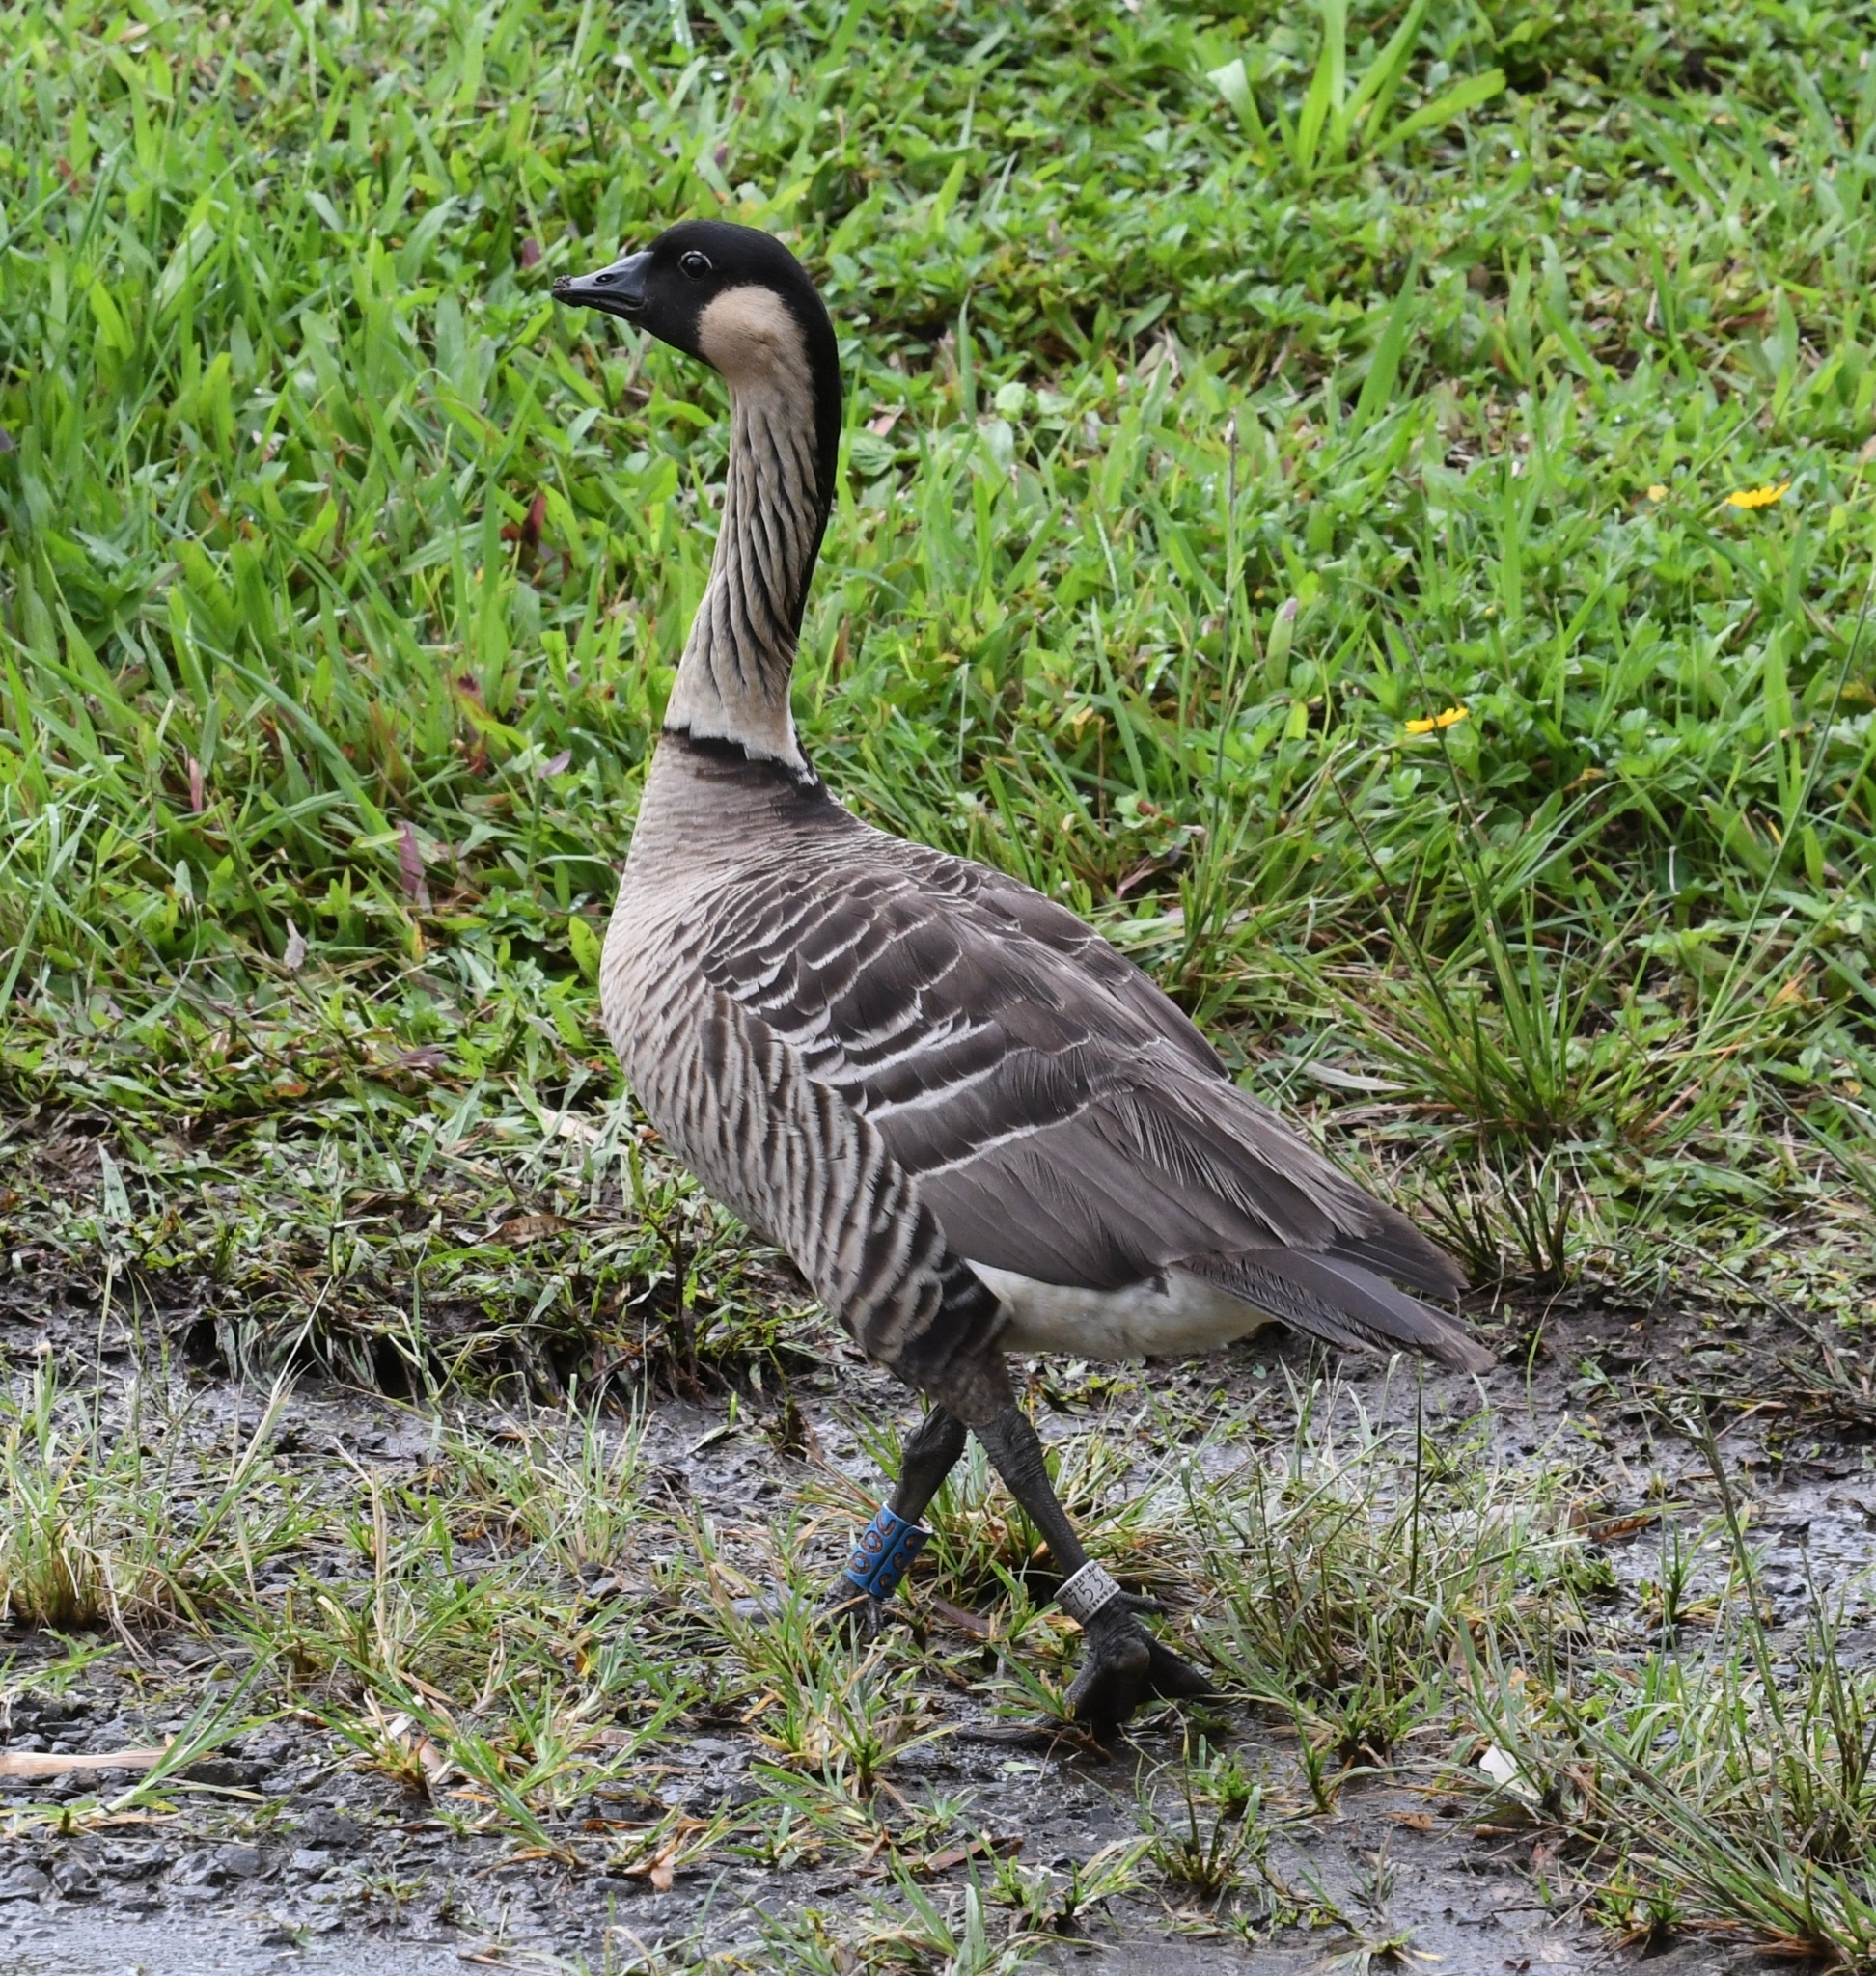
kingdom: Animalia
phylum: Chordata
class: Aves
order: Anseriformes
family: Anatidae
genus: Branta
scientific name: Branta sandvicensis
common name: Nene
